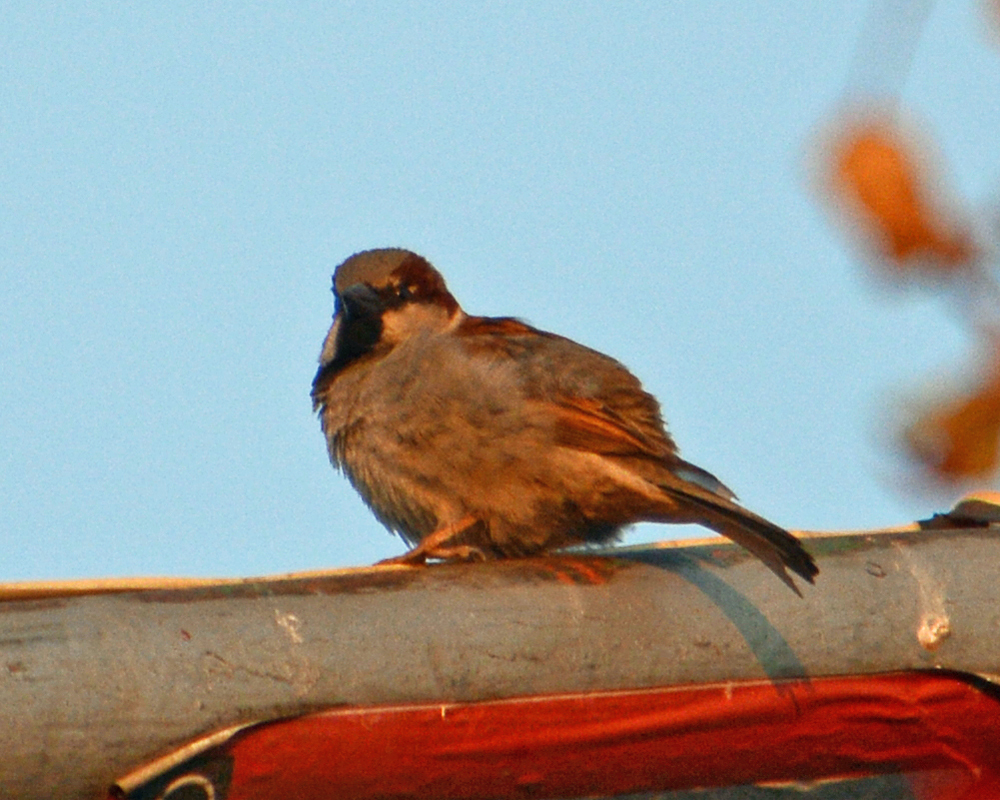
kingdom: Animalia
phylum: Chordata
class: Aves
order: Passeriformes
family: Passeridae
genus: Passer
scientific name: Passer domesticus
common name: House sparrow
